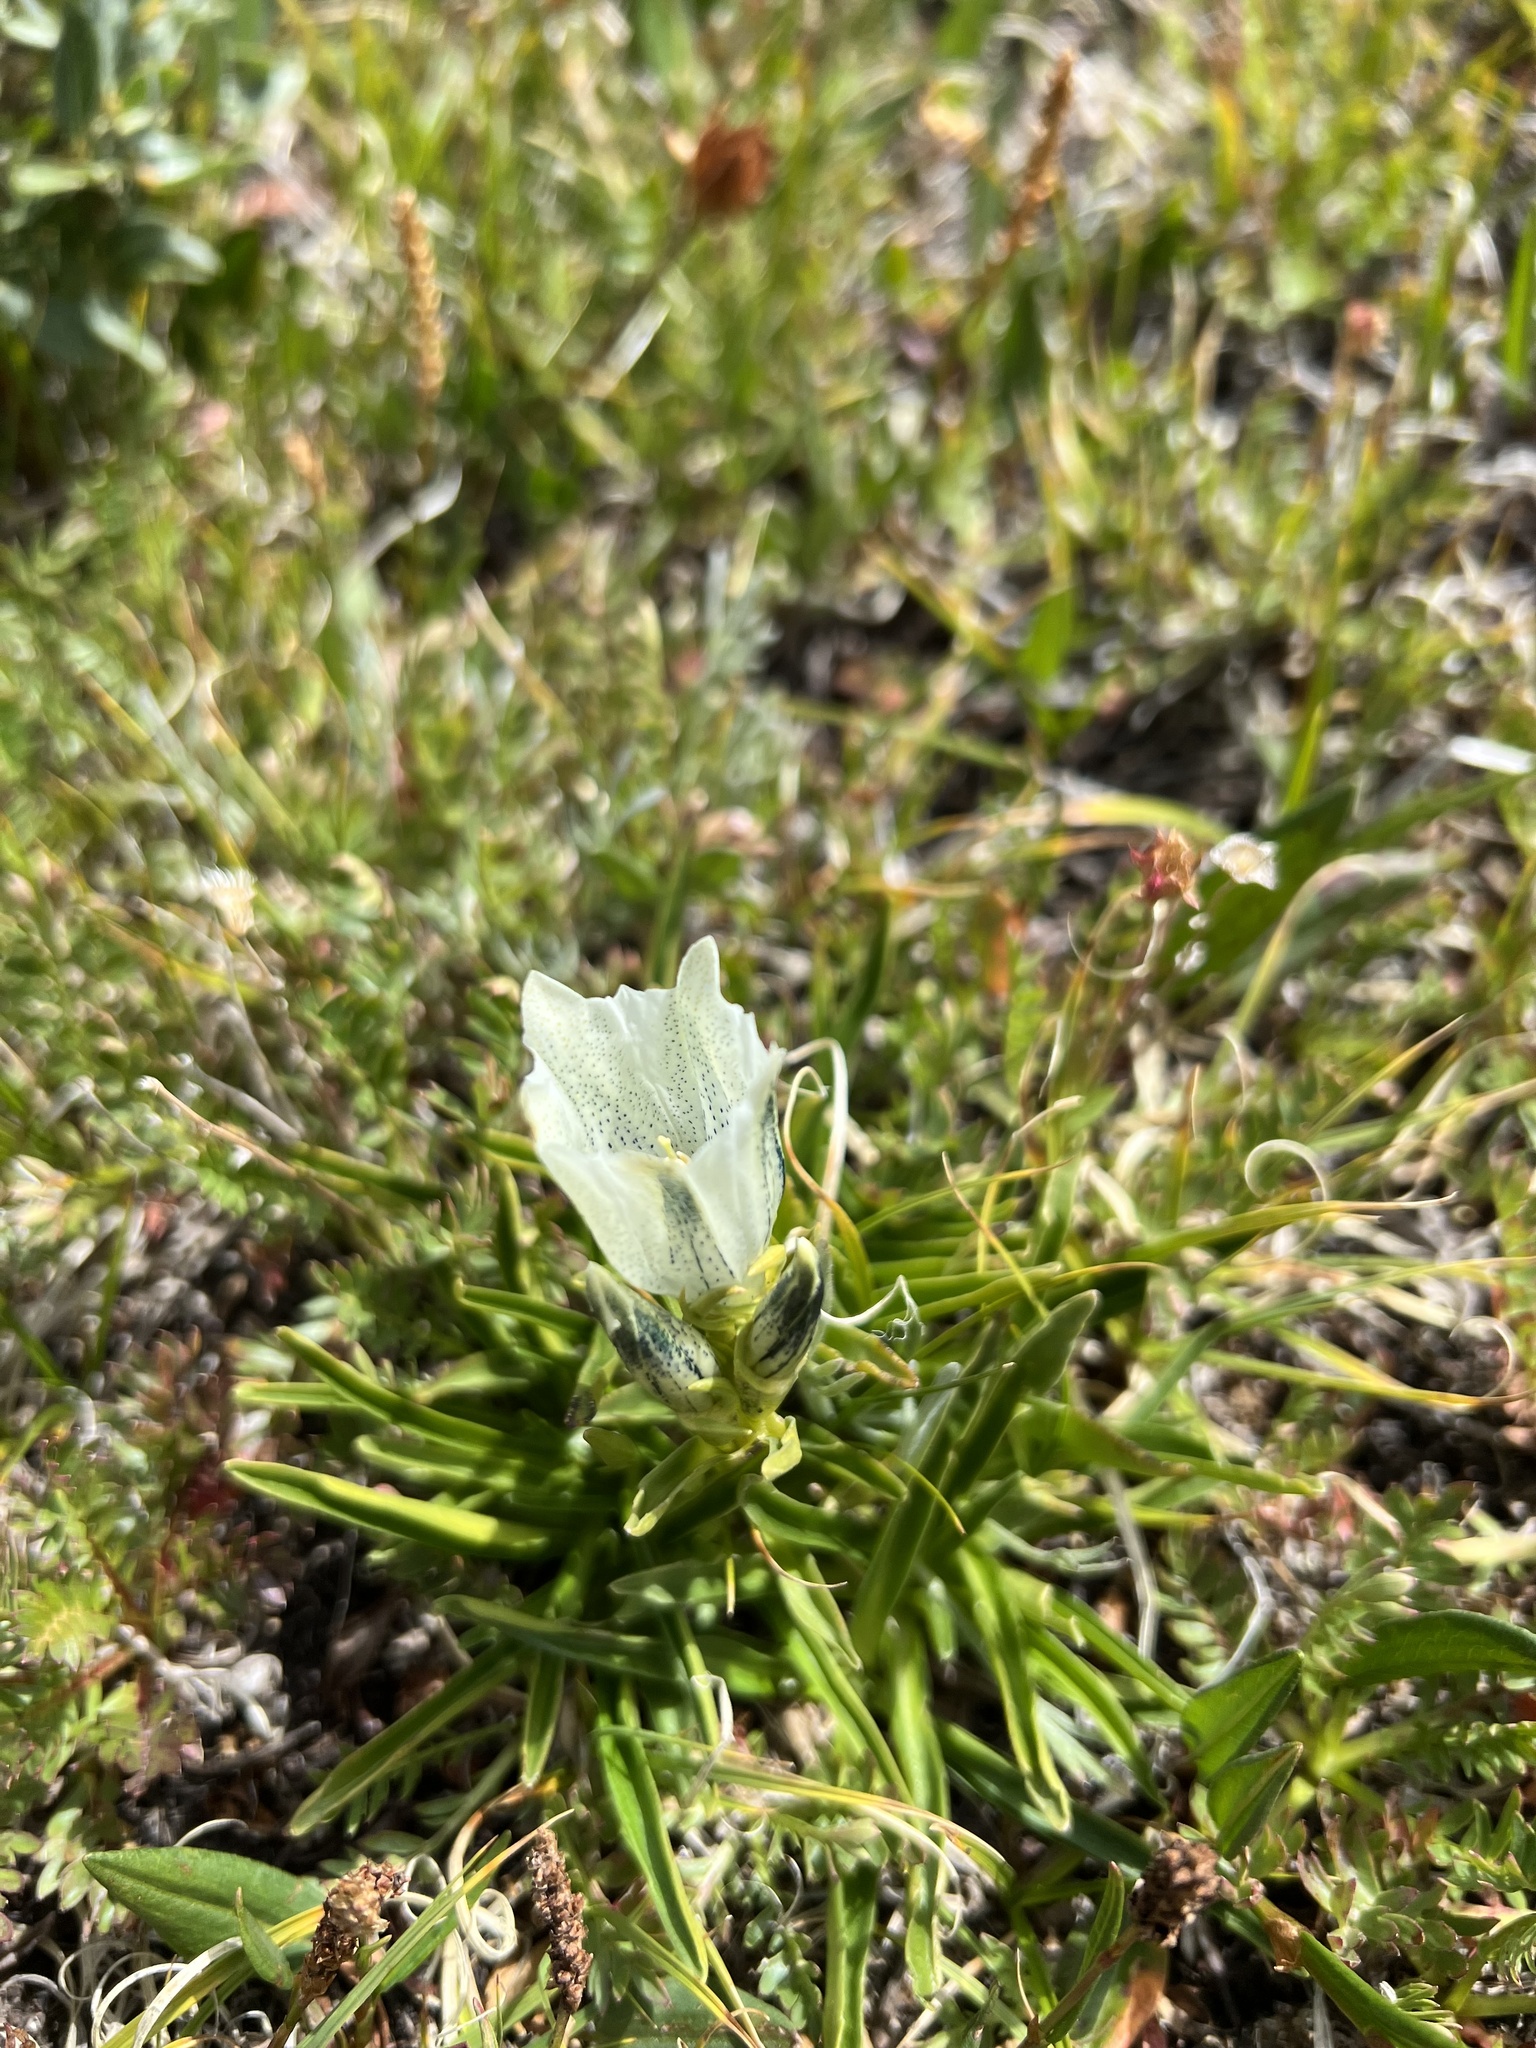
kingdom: Plantae
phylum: Tracheophyta
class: Magnoliopsida
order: Gentianales
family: Gentianaceae
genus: Gentiana
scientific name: Gentiana algida
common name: Arctic gentian
